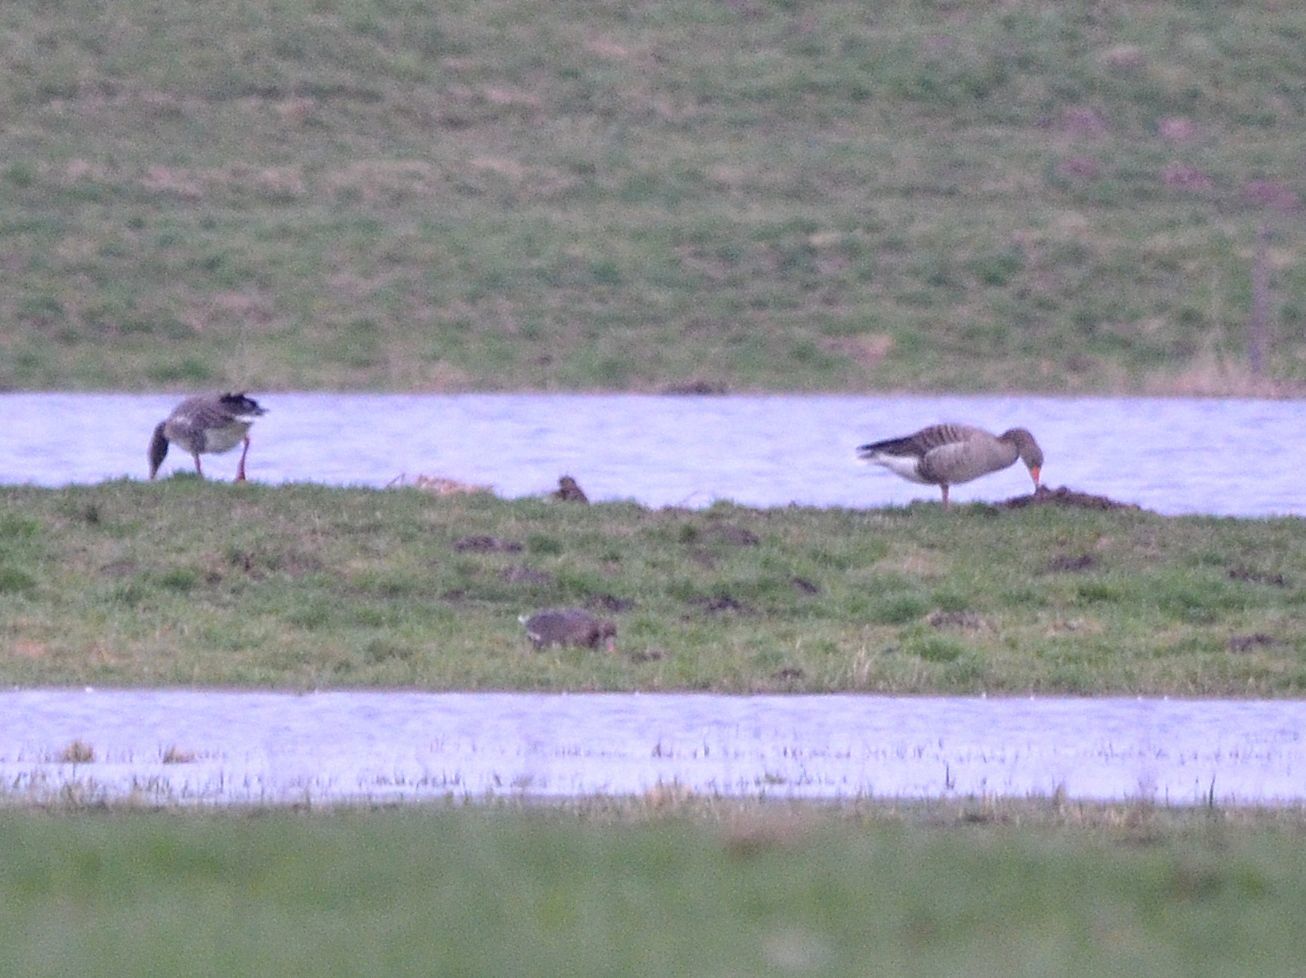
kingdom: Animalia
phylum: Chordata
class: Aves
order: Anseriformes
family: Anatidae
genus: Anser
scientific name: Anser anser
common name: Greylag goose
